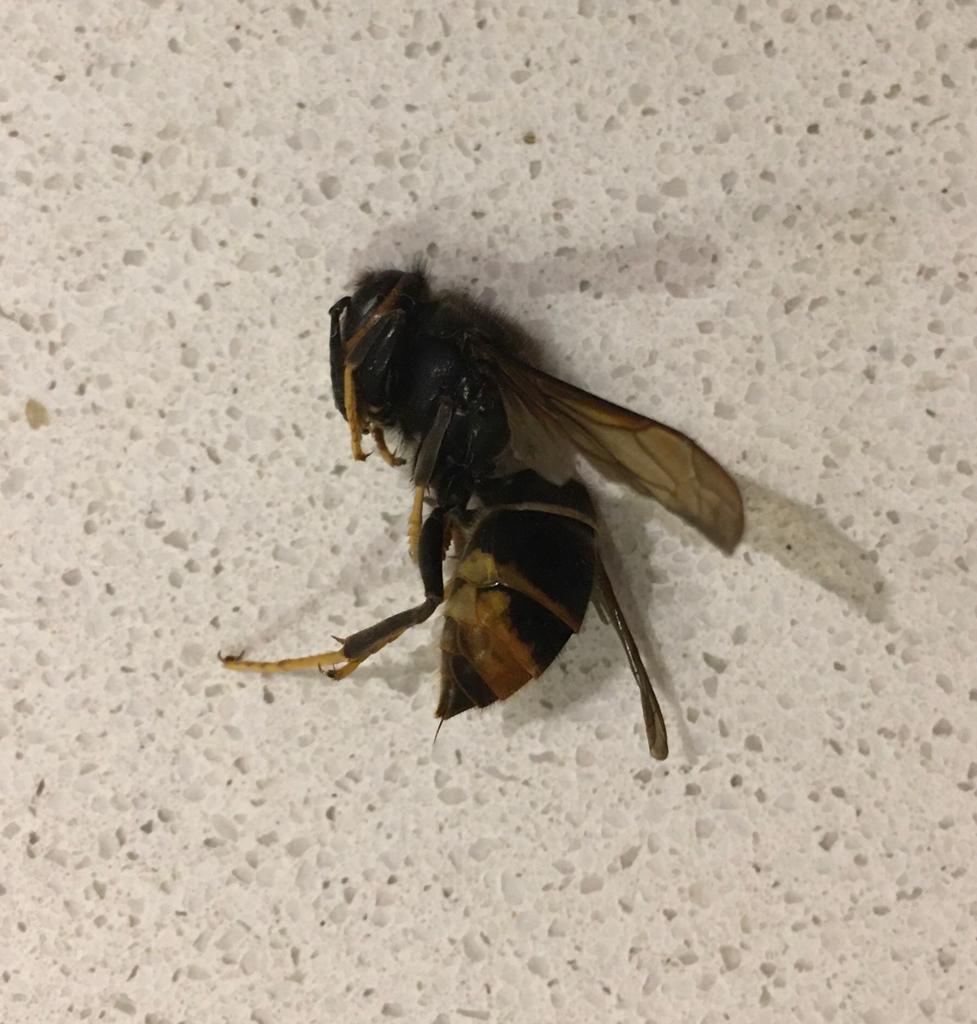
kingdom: Animalia
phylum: Arthropoda
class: Insecta
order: Hymenoptera
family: Vespidae
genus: Vespa
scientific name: Vespa velutina
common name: Asian hornet
